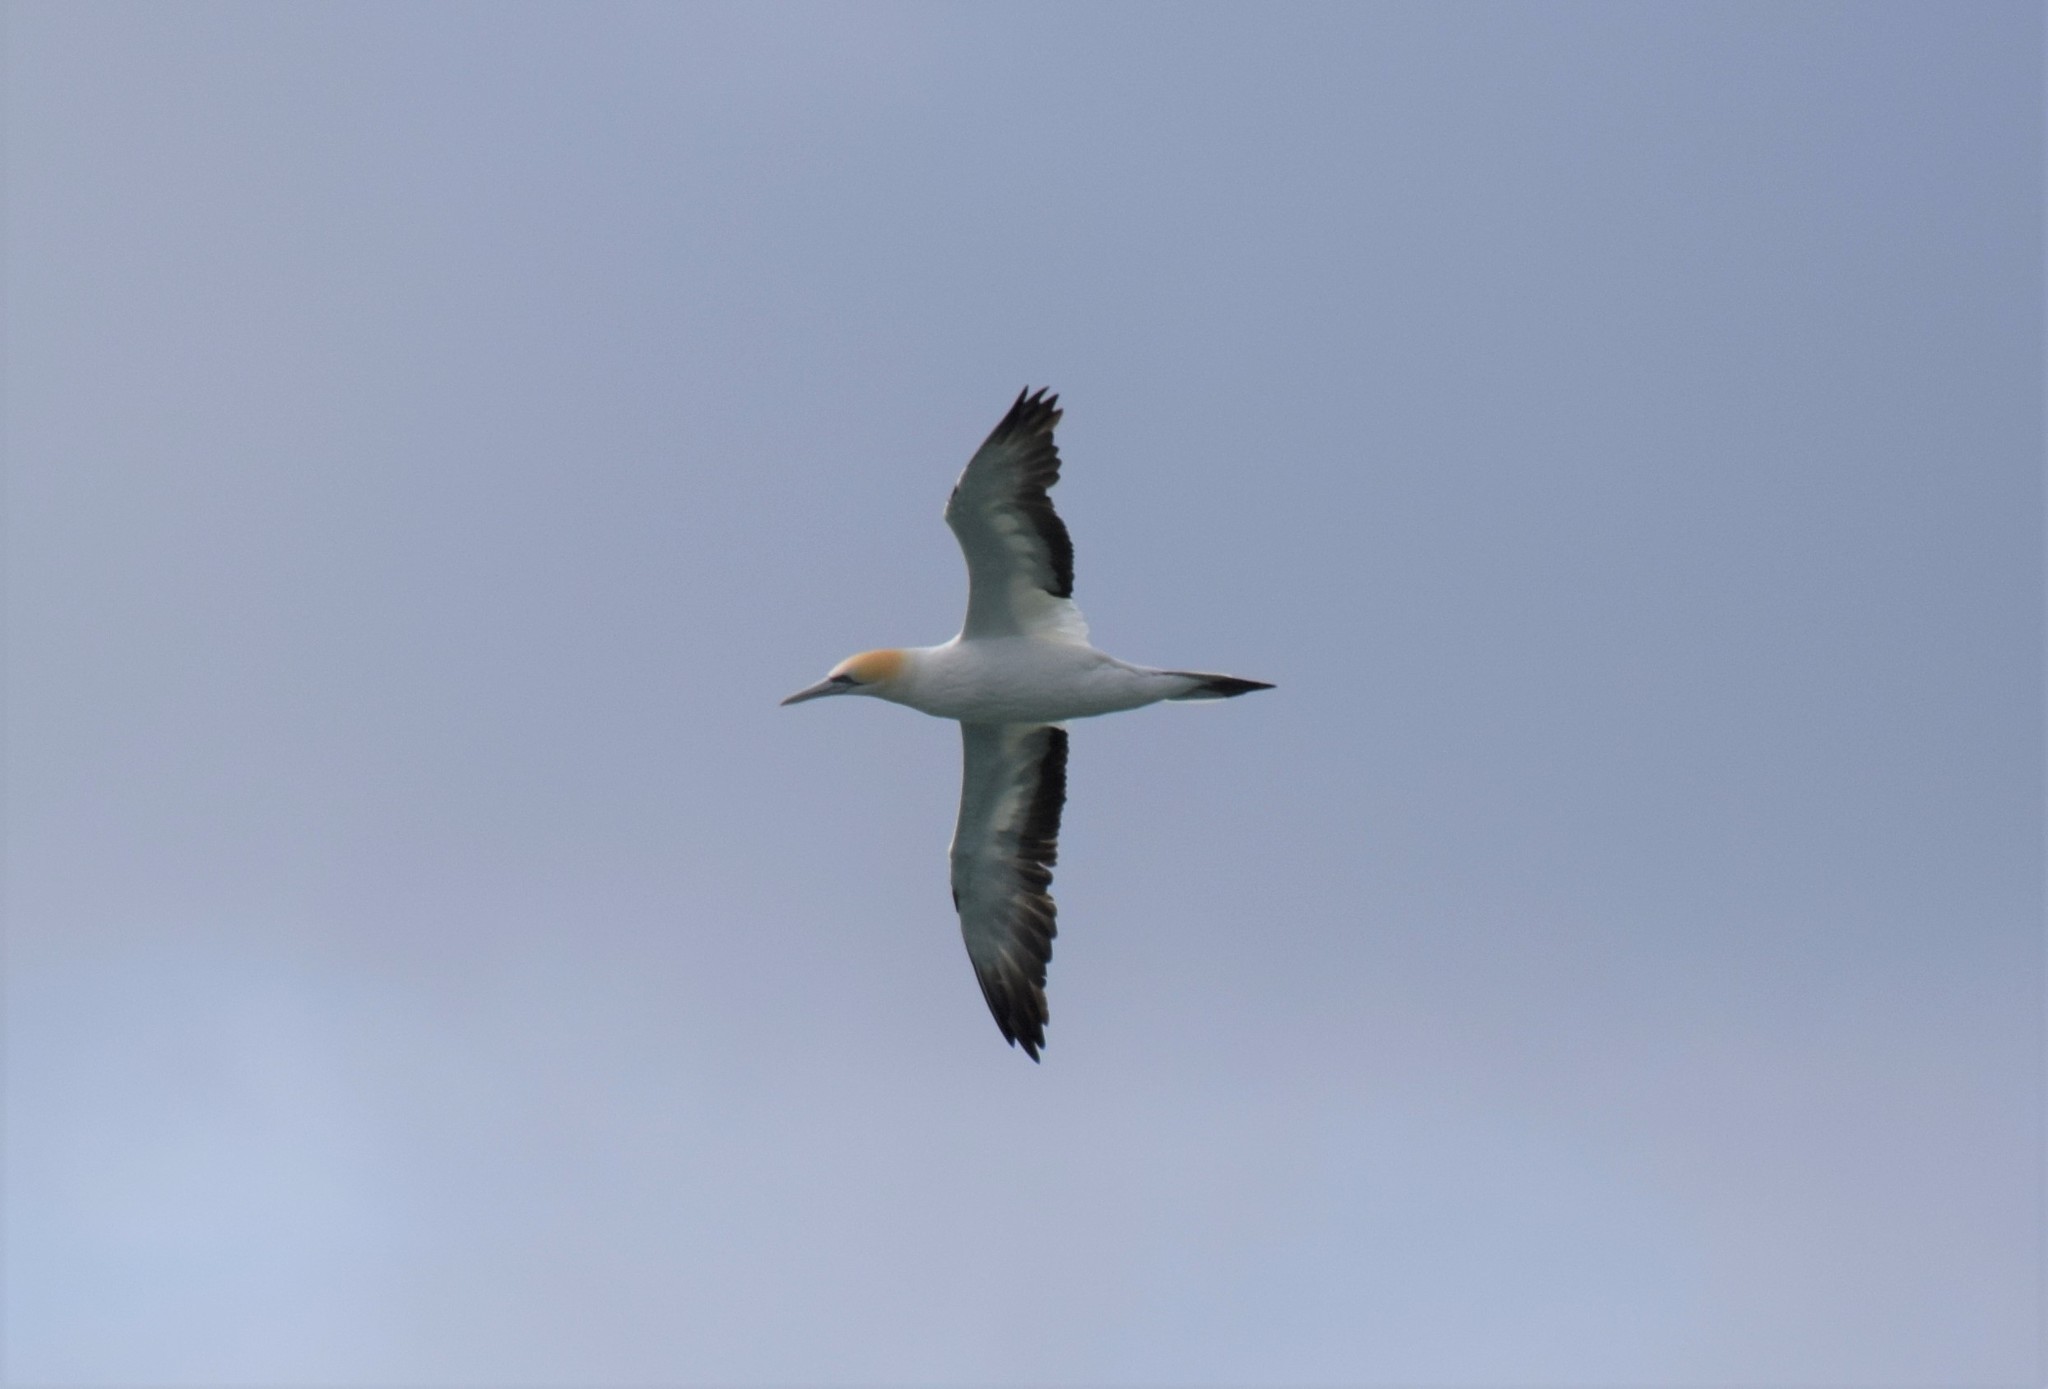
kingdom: Animalia
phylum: Chordata
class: Aves
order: Suliformes
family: Sulidae
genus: Morus
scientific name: Morus serrator
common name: Australasian gannet
